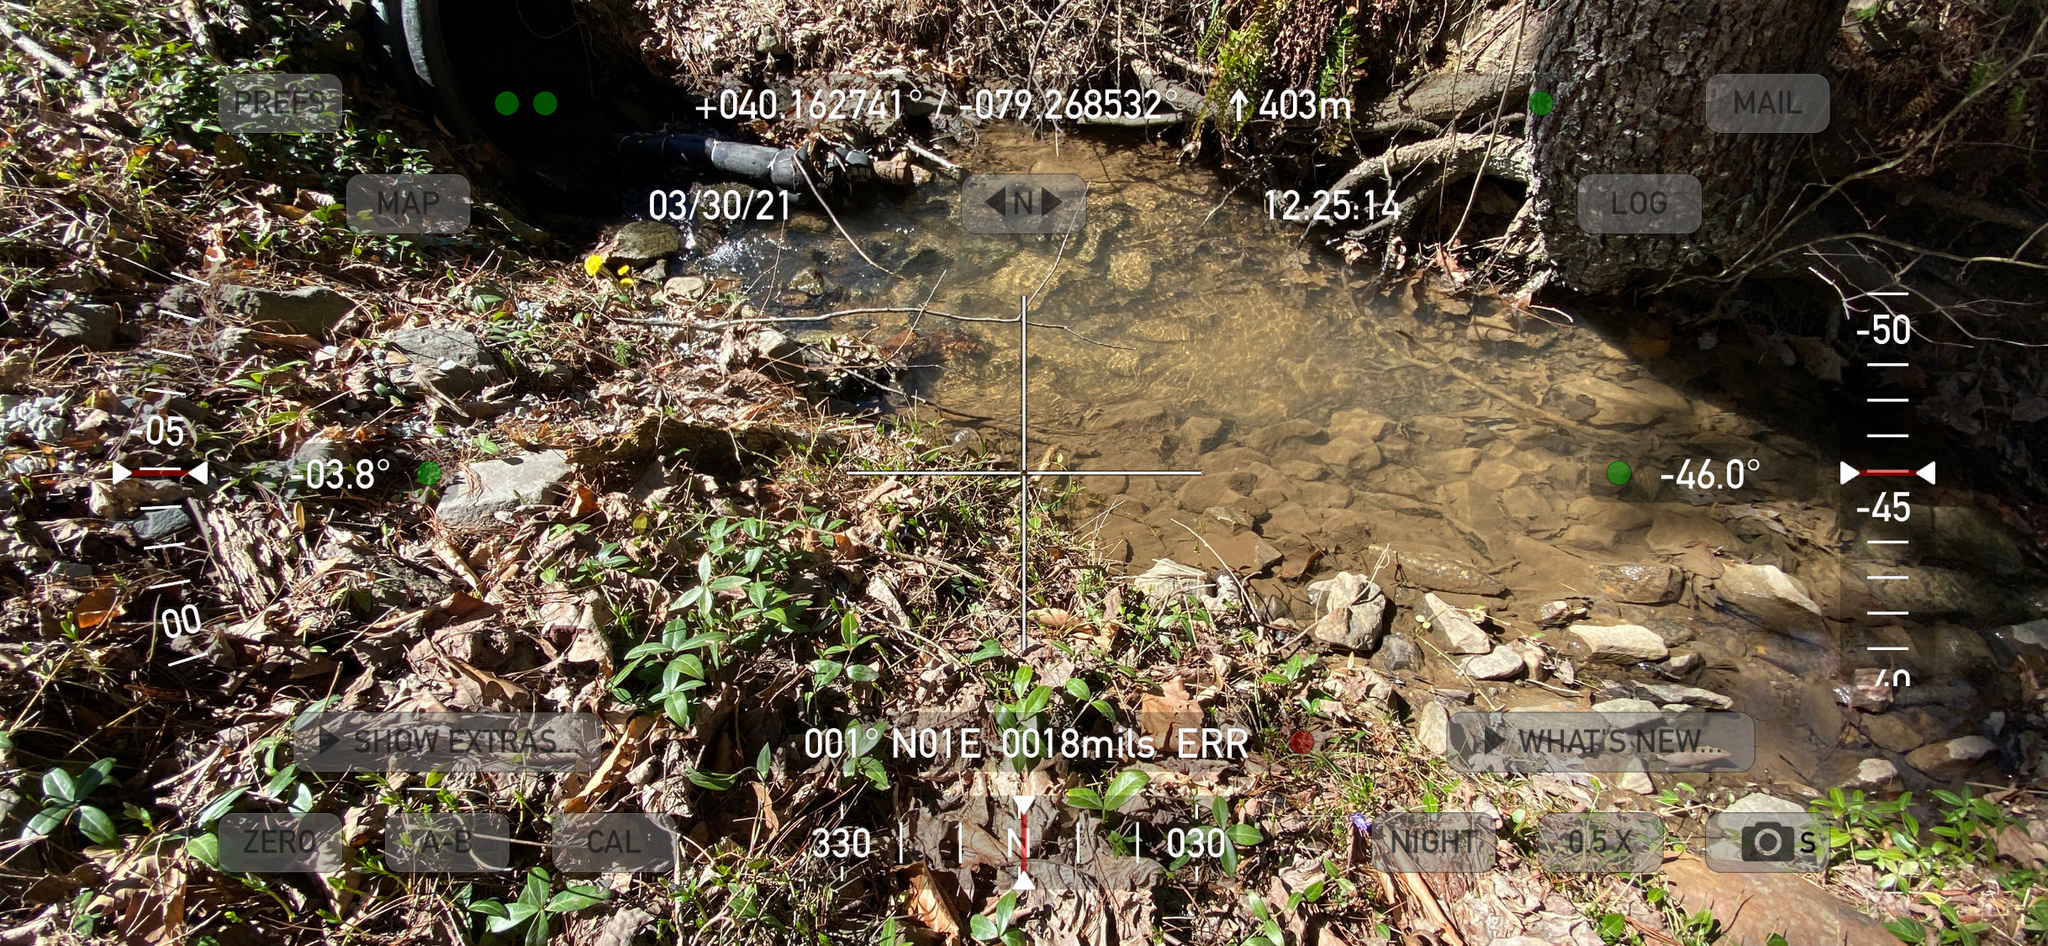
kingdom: Plantae
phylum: Tracheophyta
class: Magnoliopsida
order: Gentianales
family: Apocynaceae
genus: Vinca
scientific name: Vinca minor
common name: Lesser periwinkle
